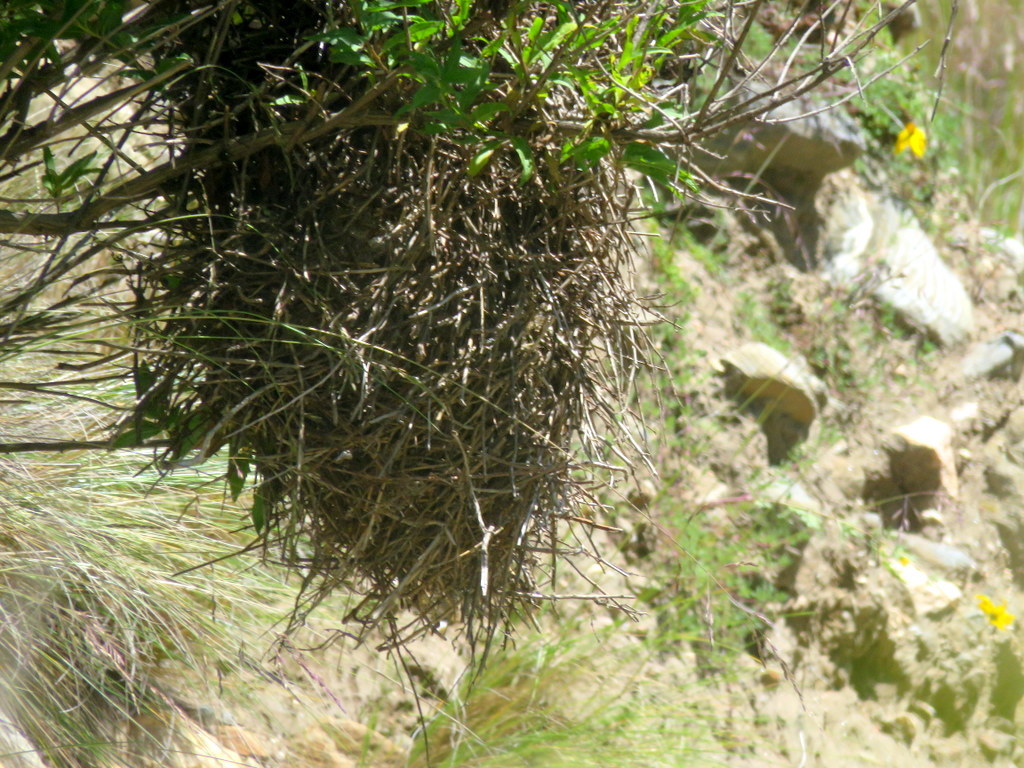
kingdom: Animalia
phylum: Chordata
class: Aves
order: Passeriformes
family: Furnariidae
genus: Phacellodomus
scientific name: Phacellodomus striaticeps
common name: Streak-fronted thornbird
